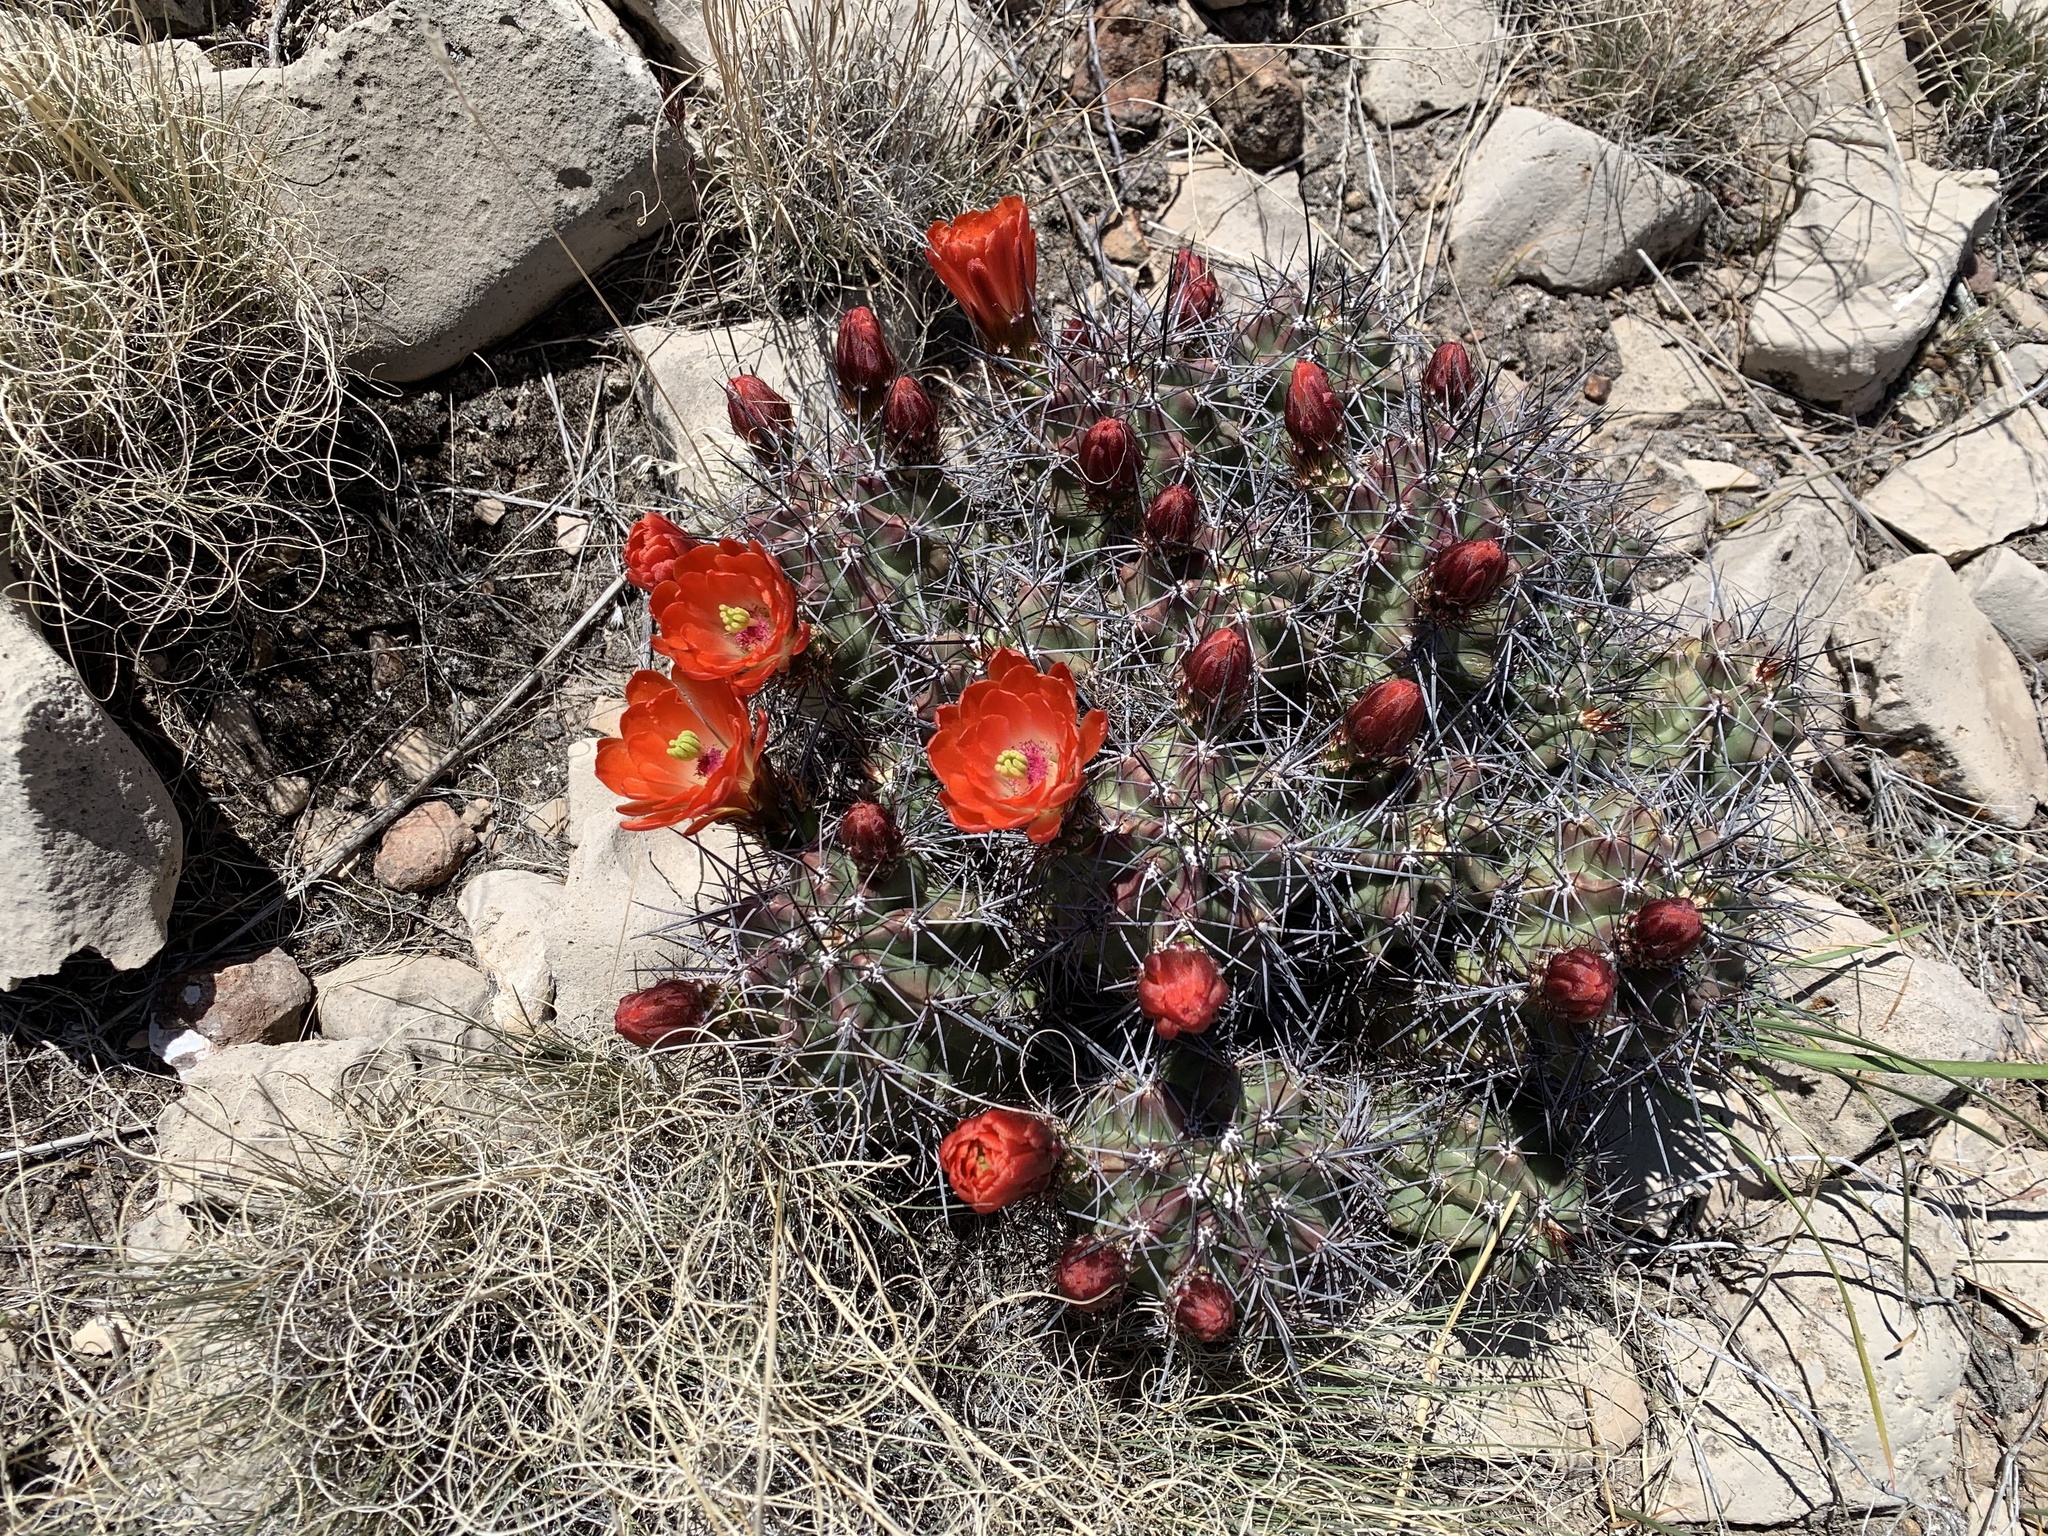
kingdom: Plantae
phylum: Tracheophyta
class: Magnoliopsida
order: Caryophyllales
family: Cactaceae
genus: Echinocereus
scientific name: Echinocereus coccineus
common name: Scarlet hedgehog cactus
